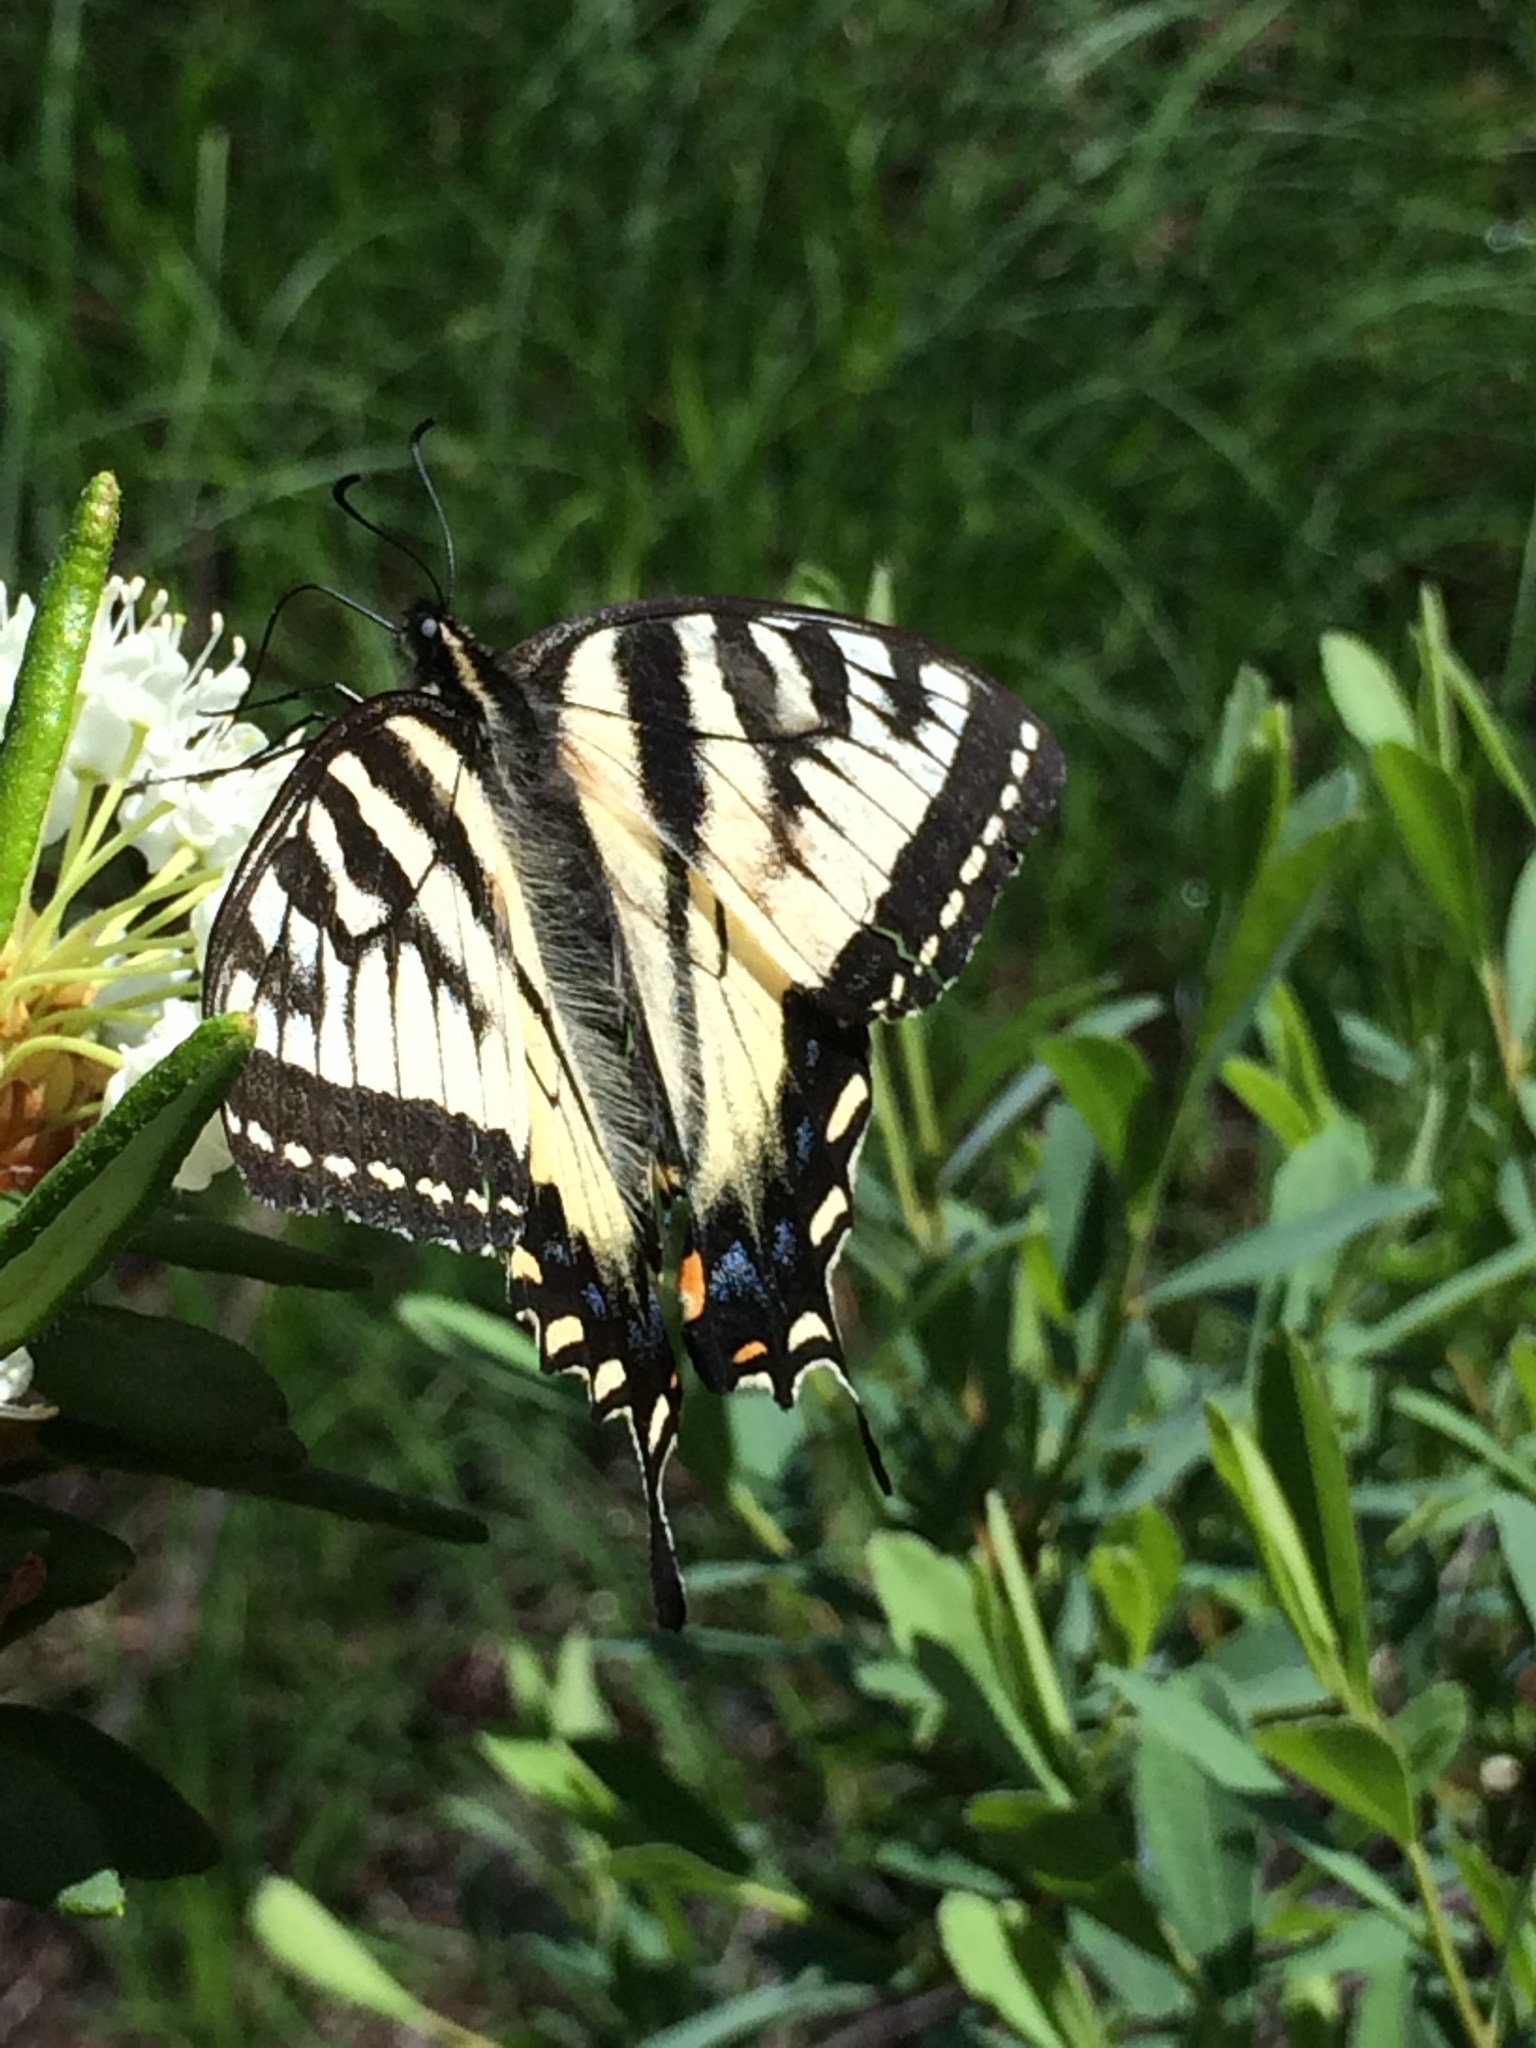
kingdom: Animalia
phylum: Arthropoda
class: Insecta
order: Lepidoptera
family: Papilionidae
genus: Papilio
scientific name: Papilio canadensis
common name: Canadian tiger swallowtail
